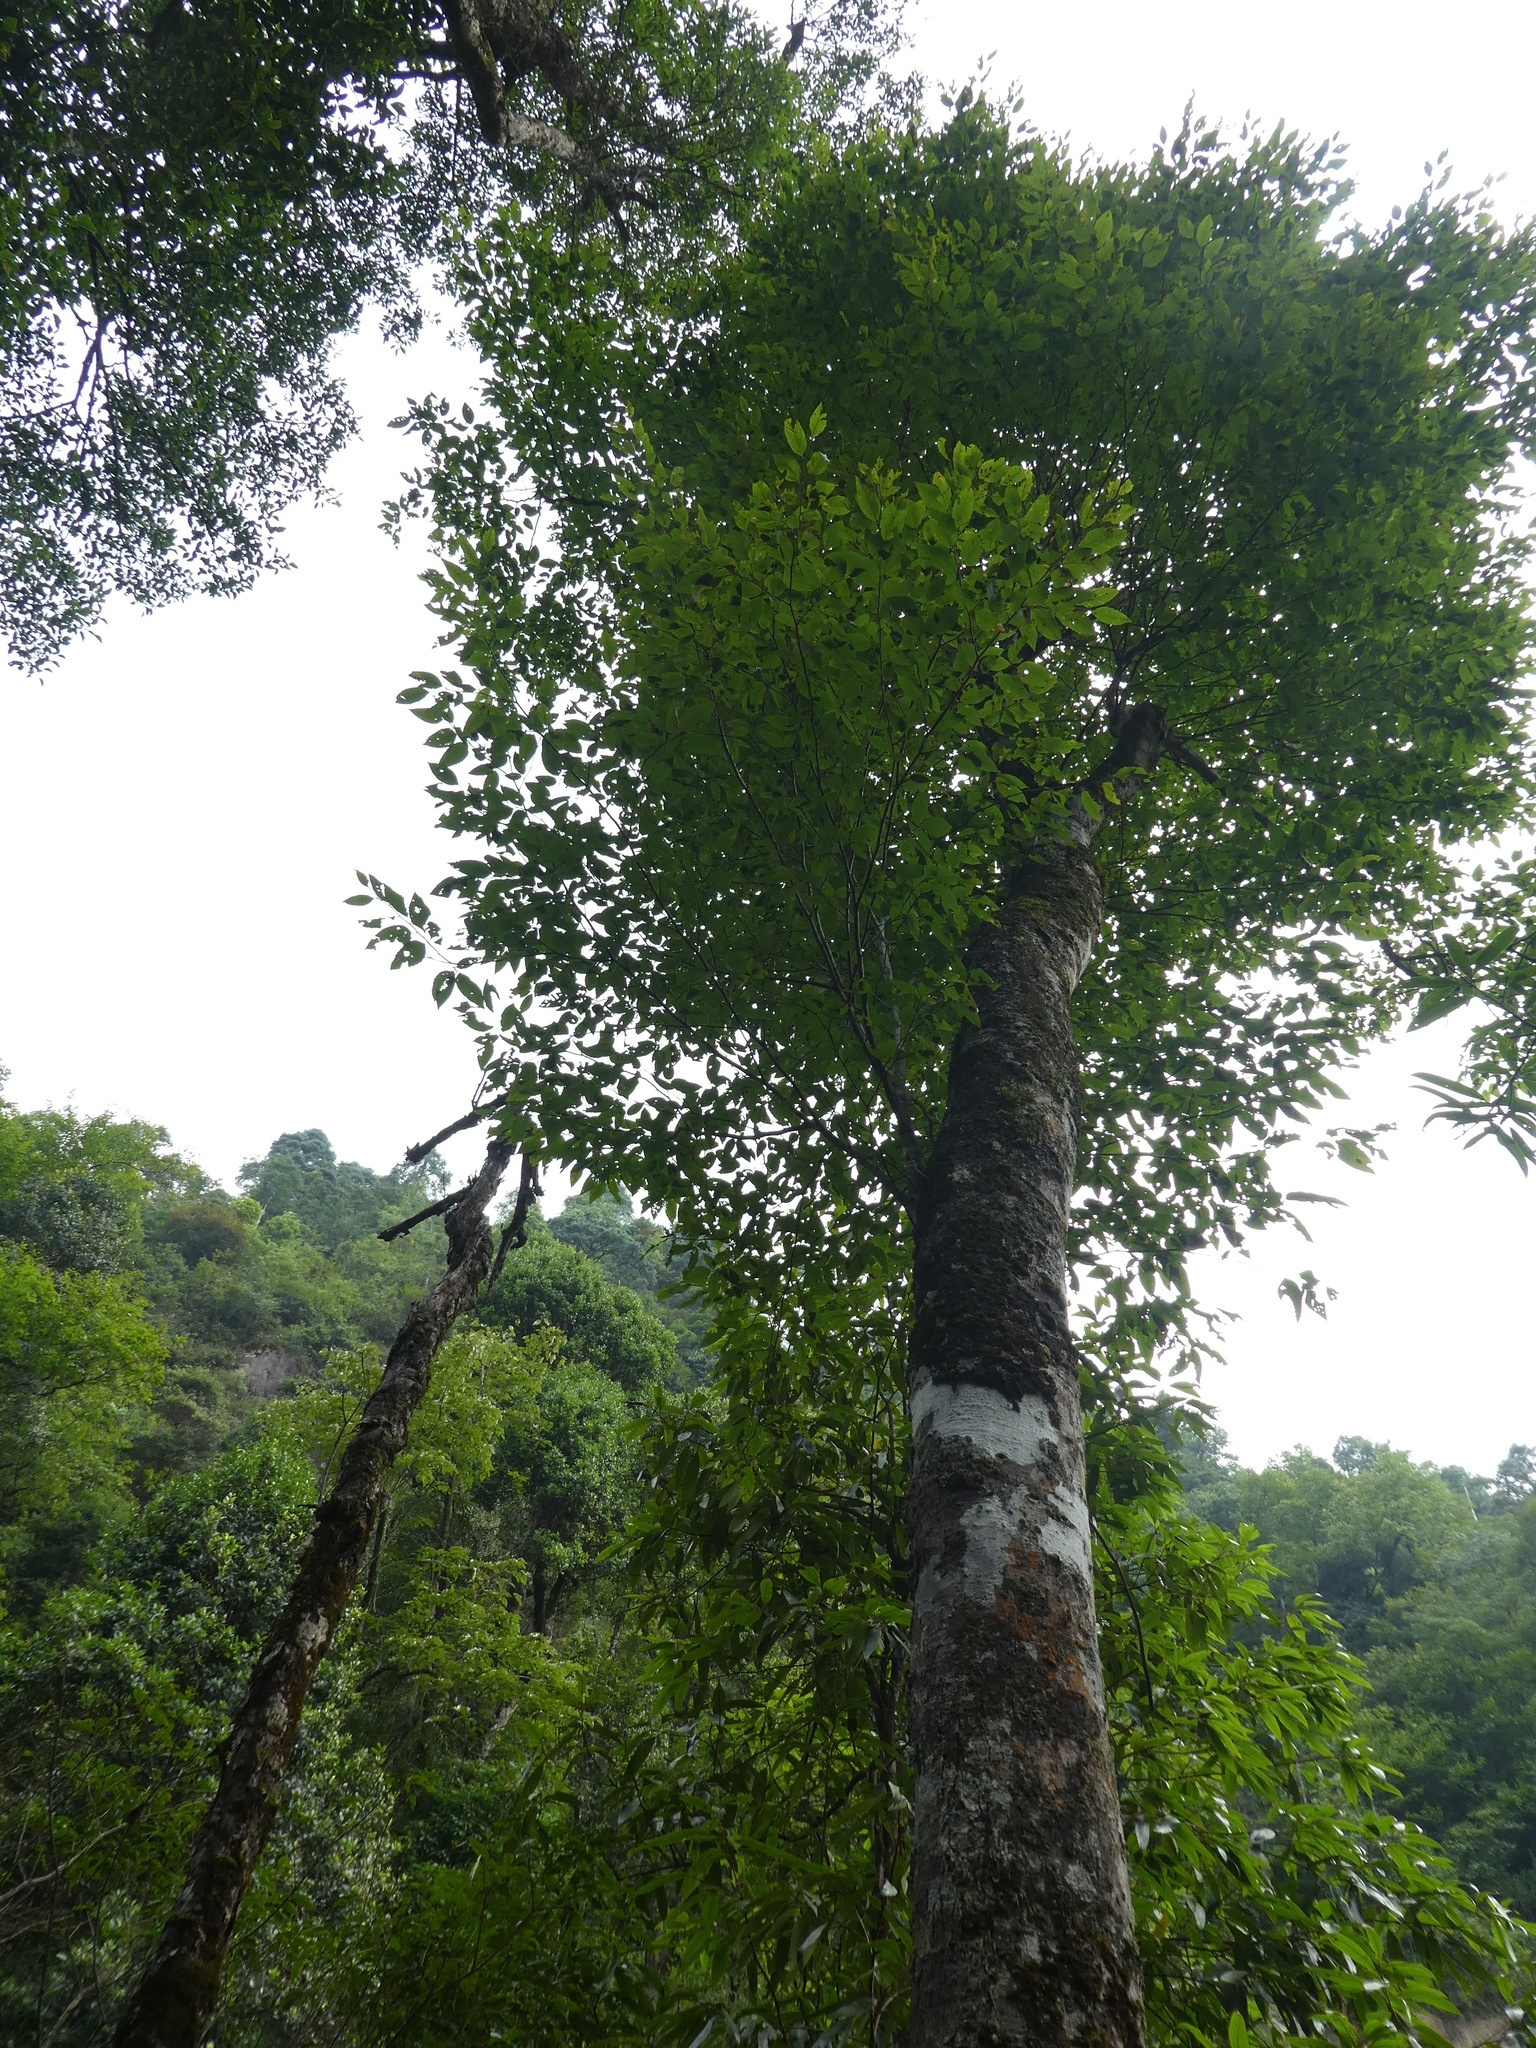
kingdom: Plantae
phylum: Tracheophyta
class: Magnoliopsida
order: Fagales
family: Fagaceae
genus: Fagus
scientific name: Fagus sinensis
